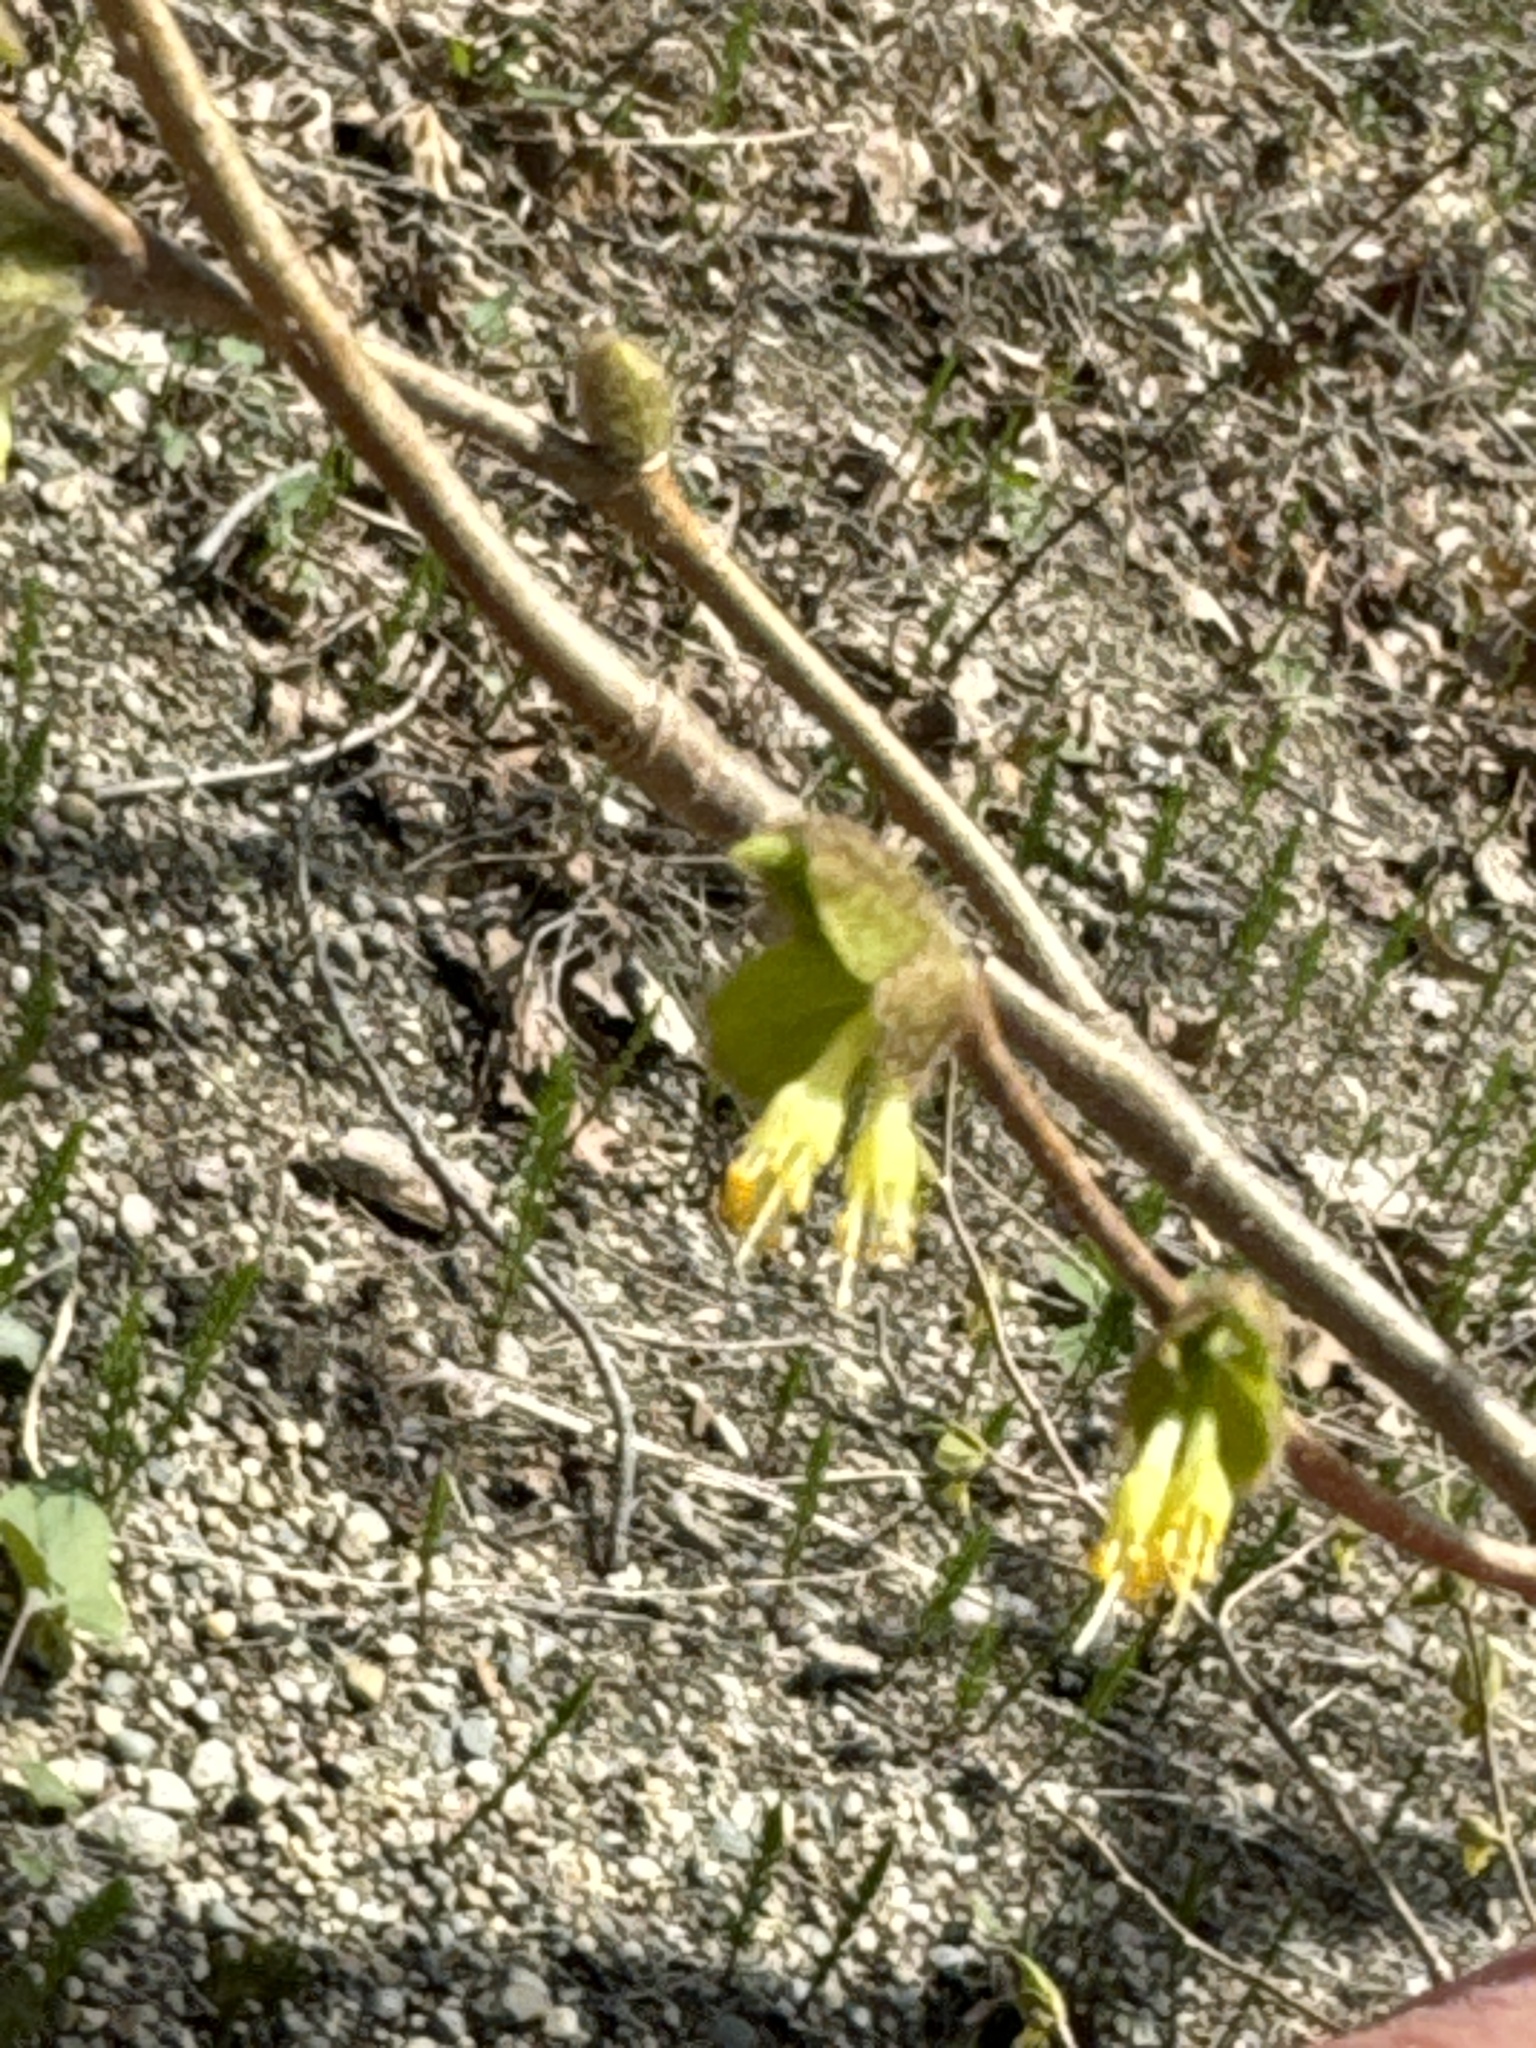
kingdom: Plantae
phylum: Tracheophyta
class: Magnoliopsida
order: Malvales
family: Thymelaeaceae
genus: Dirca
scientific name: Dirca palustris
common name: Leatherwood
